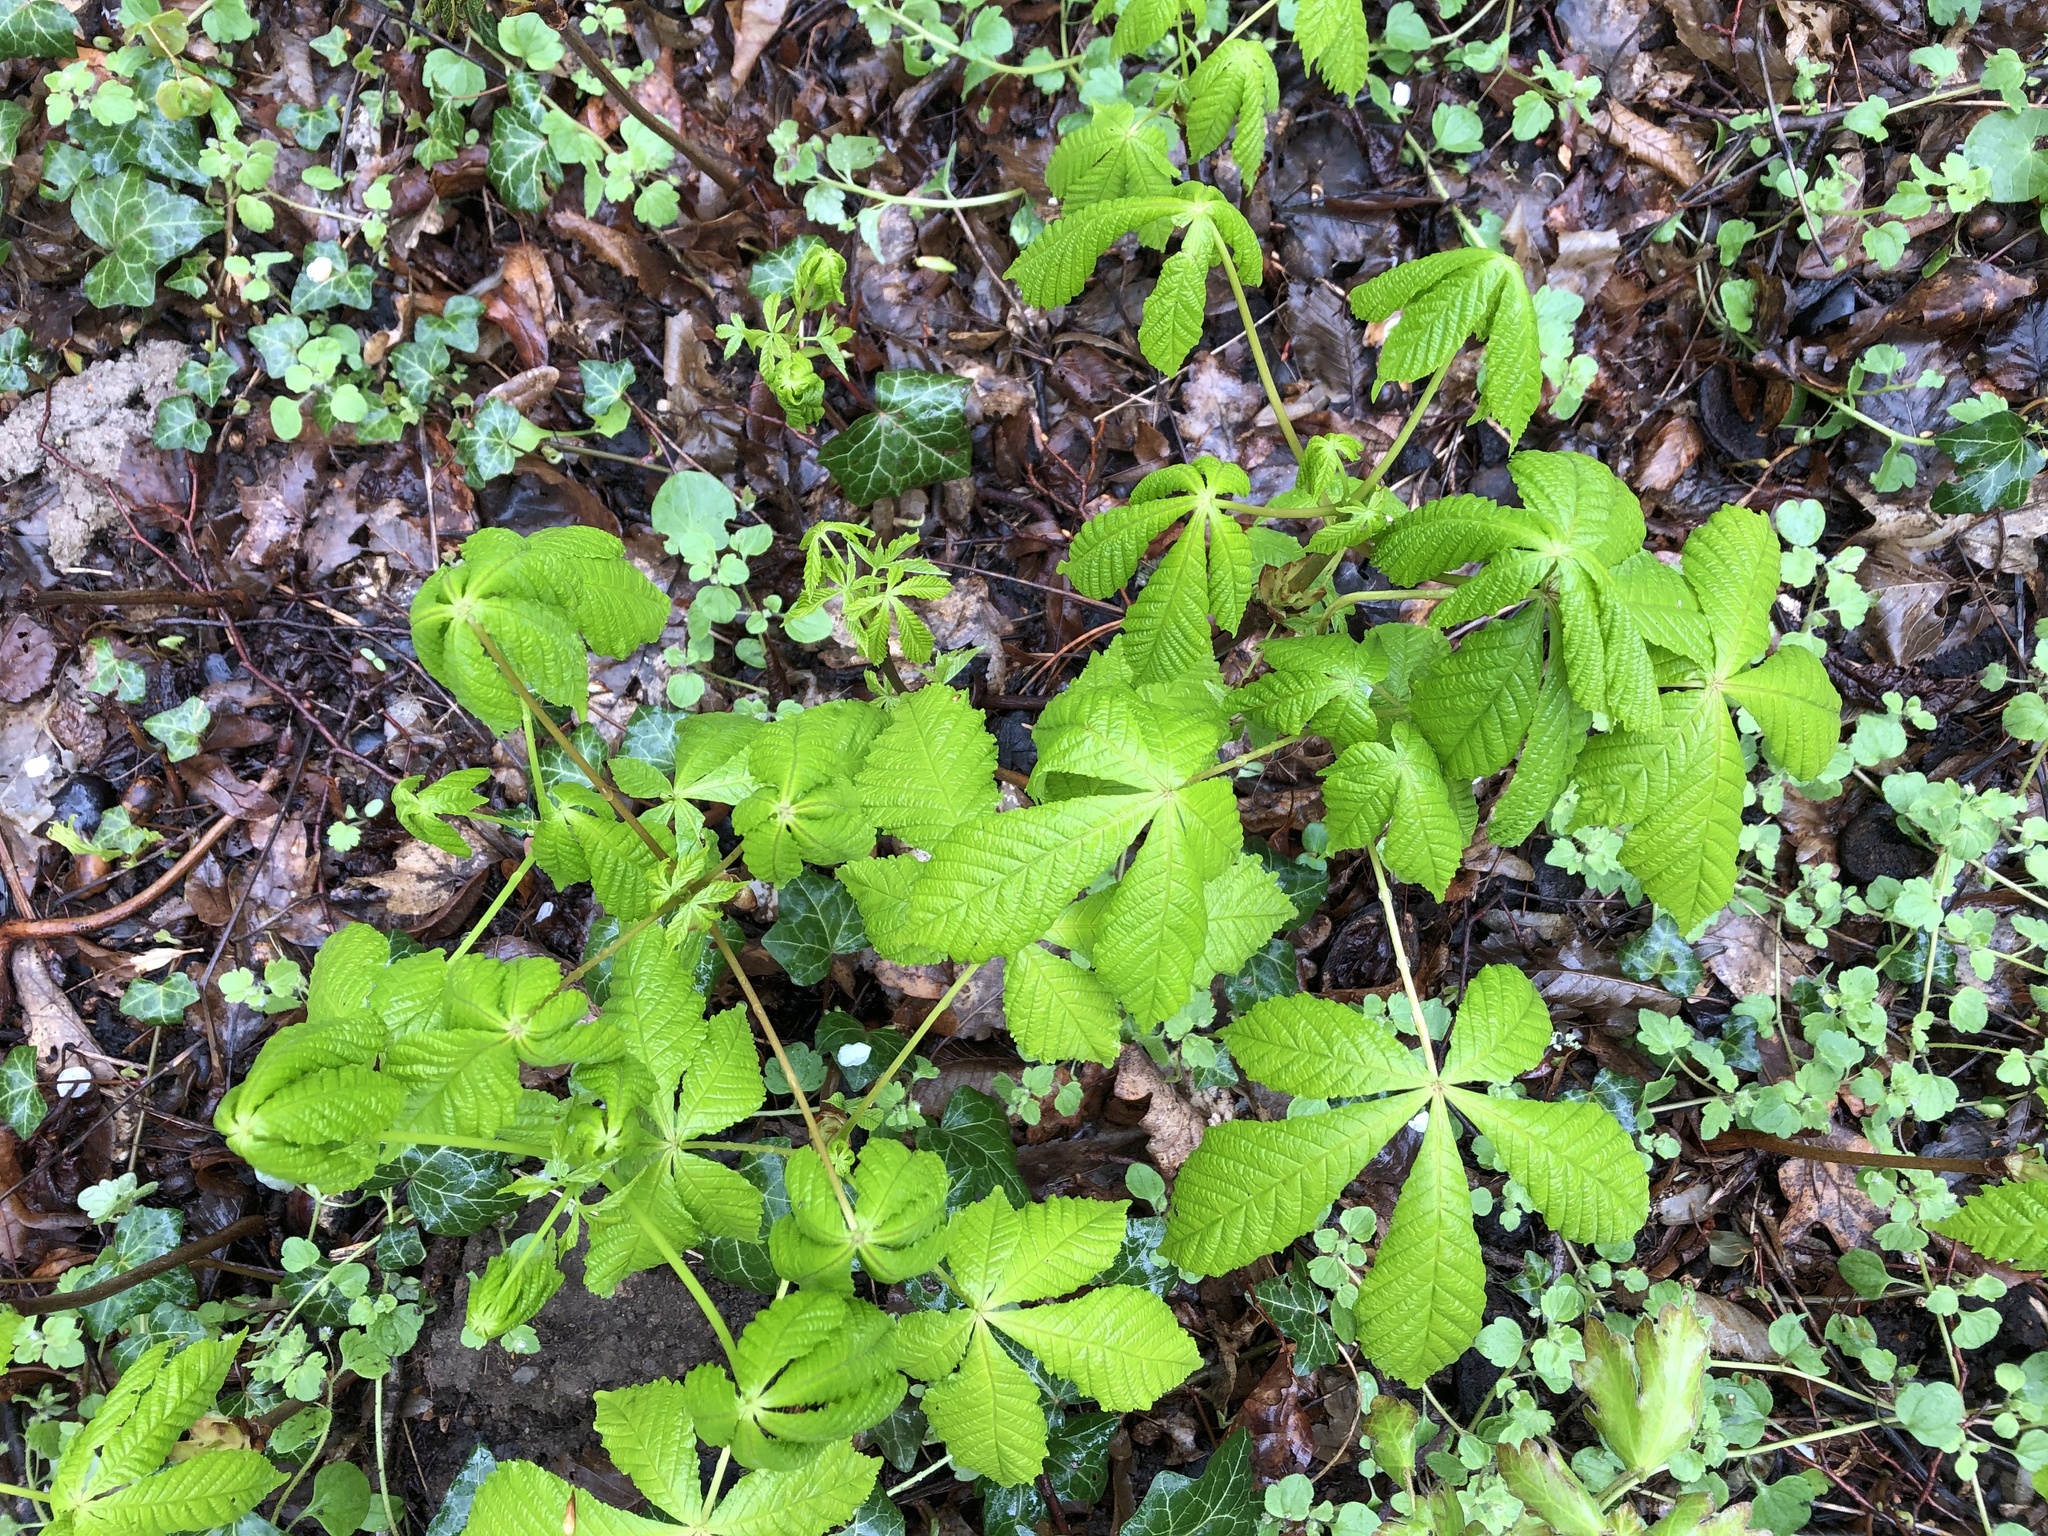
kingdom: Plantae
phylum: Tracheophyta
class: Magnoliopsida
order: Sapindales
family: Sapindaceae
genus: Aesculus
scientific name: Aesculus hippocastanum
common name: Horse-chestnut
